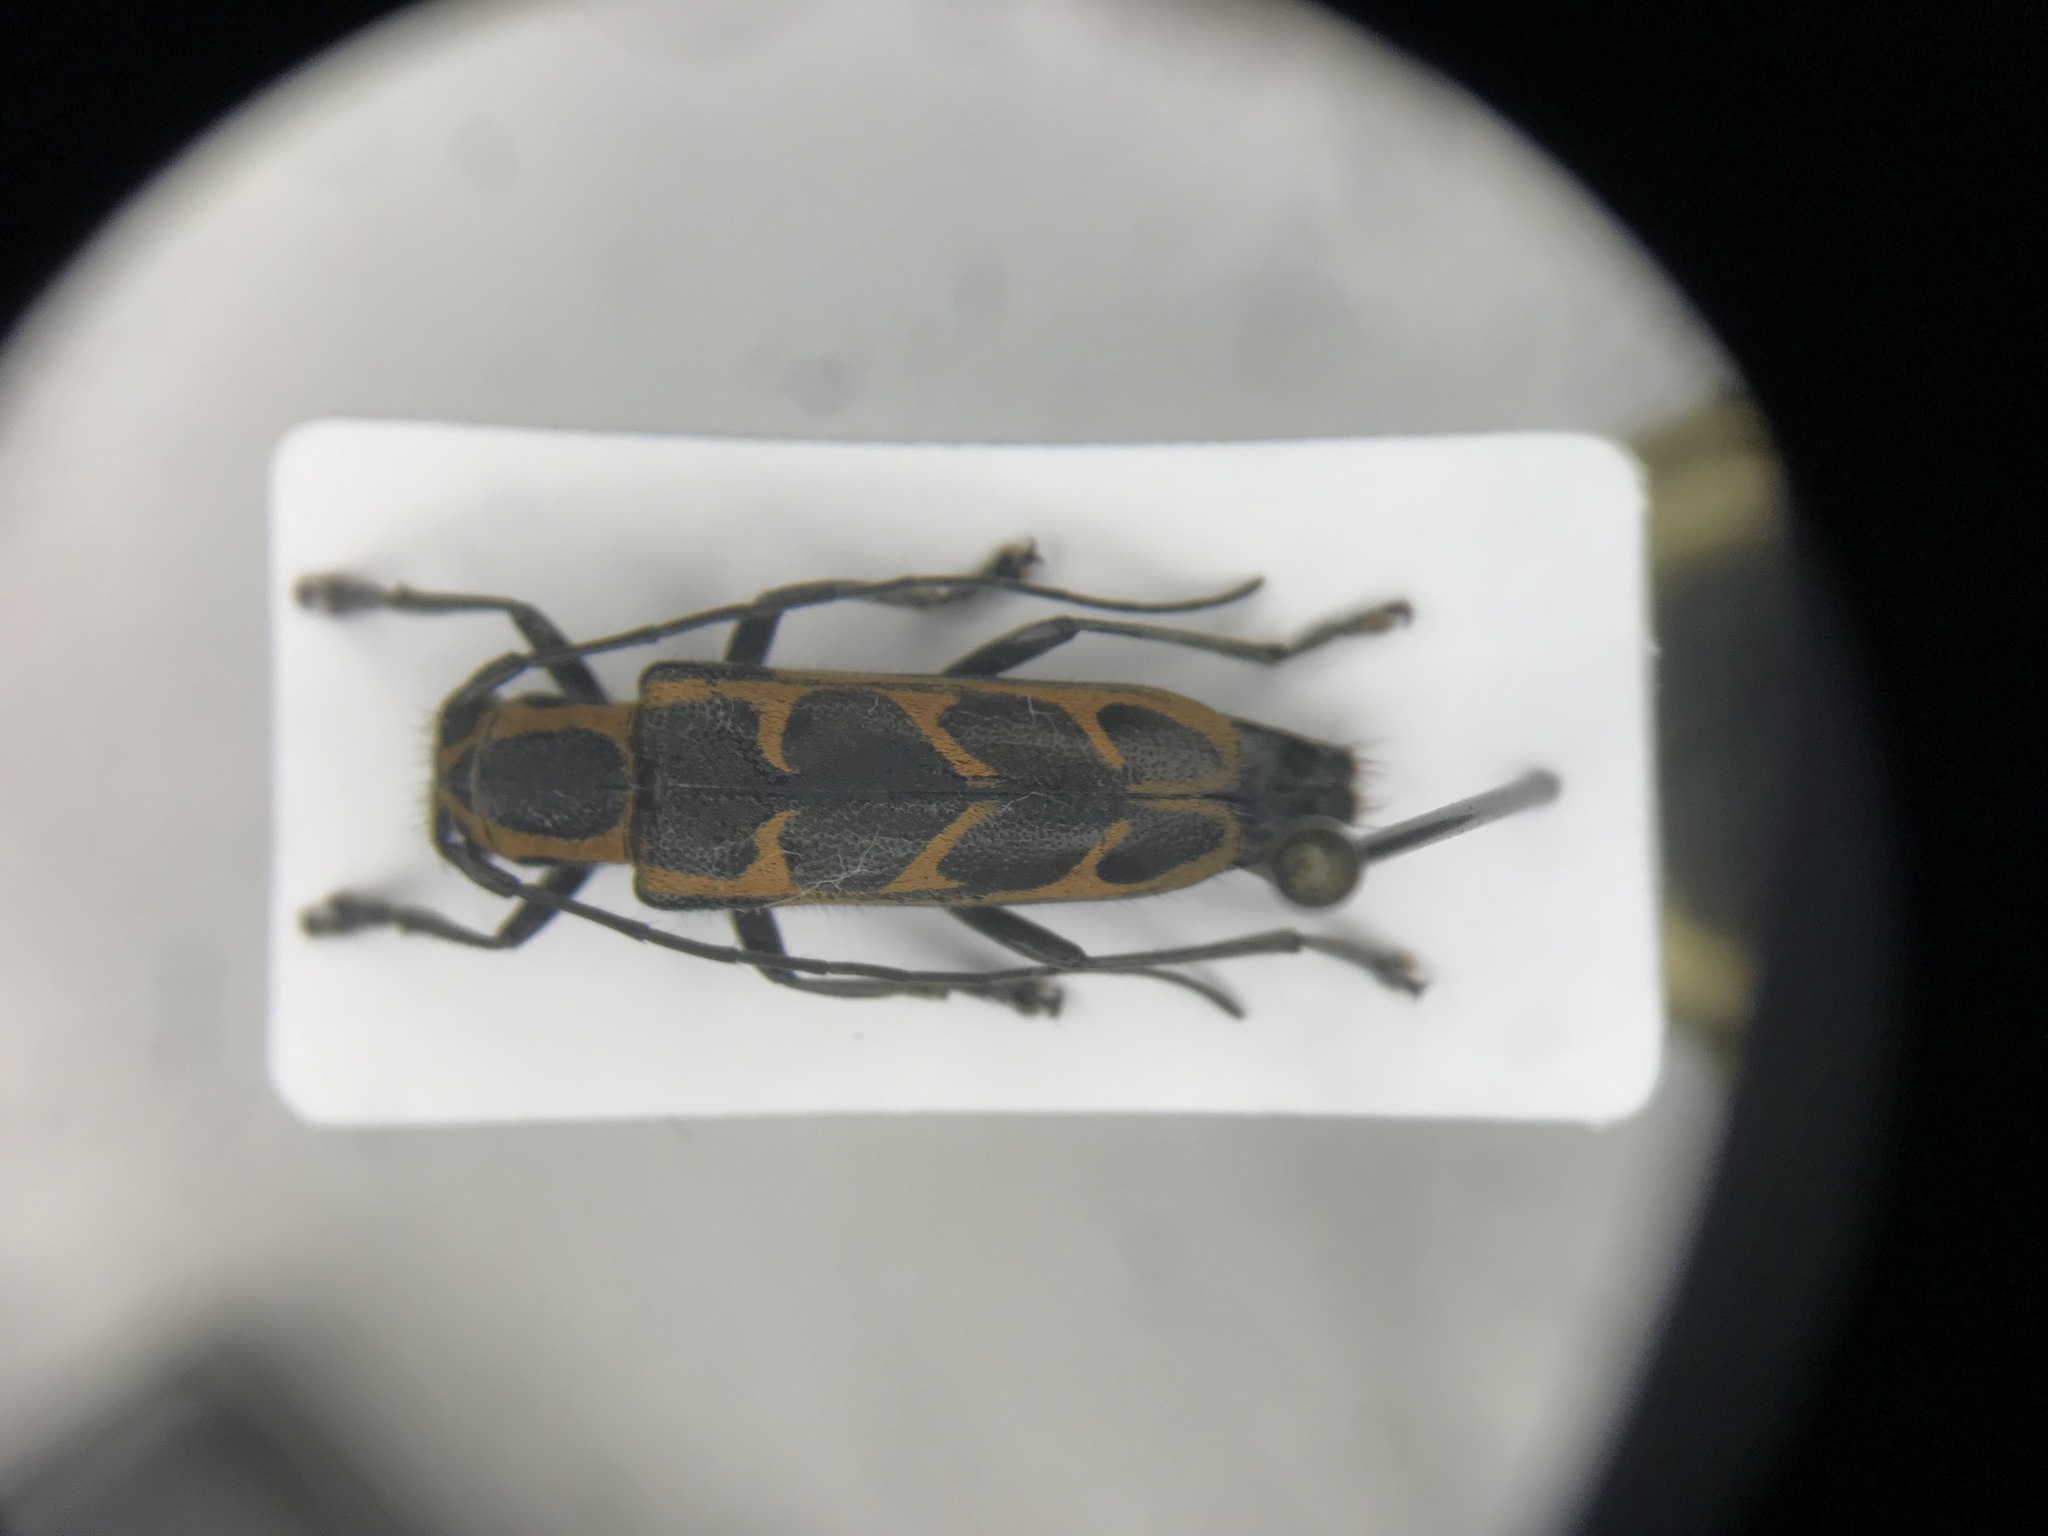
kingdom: Animalia
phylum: Arthropoda
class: Insecta
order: Coleoptera
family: Cerambycidae
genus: Saperda
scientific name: Saperda tridentata
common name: Elm borer
